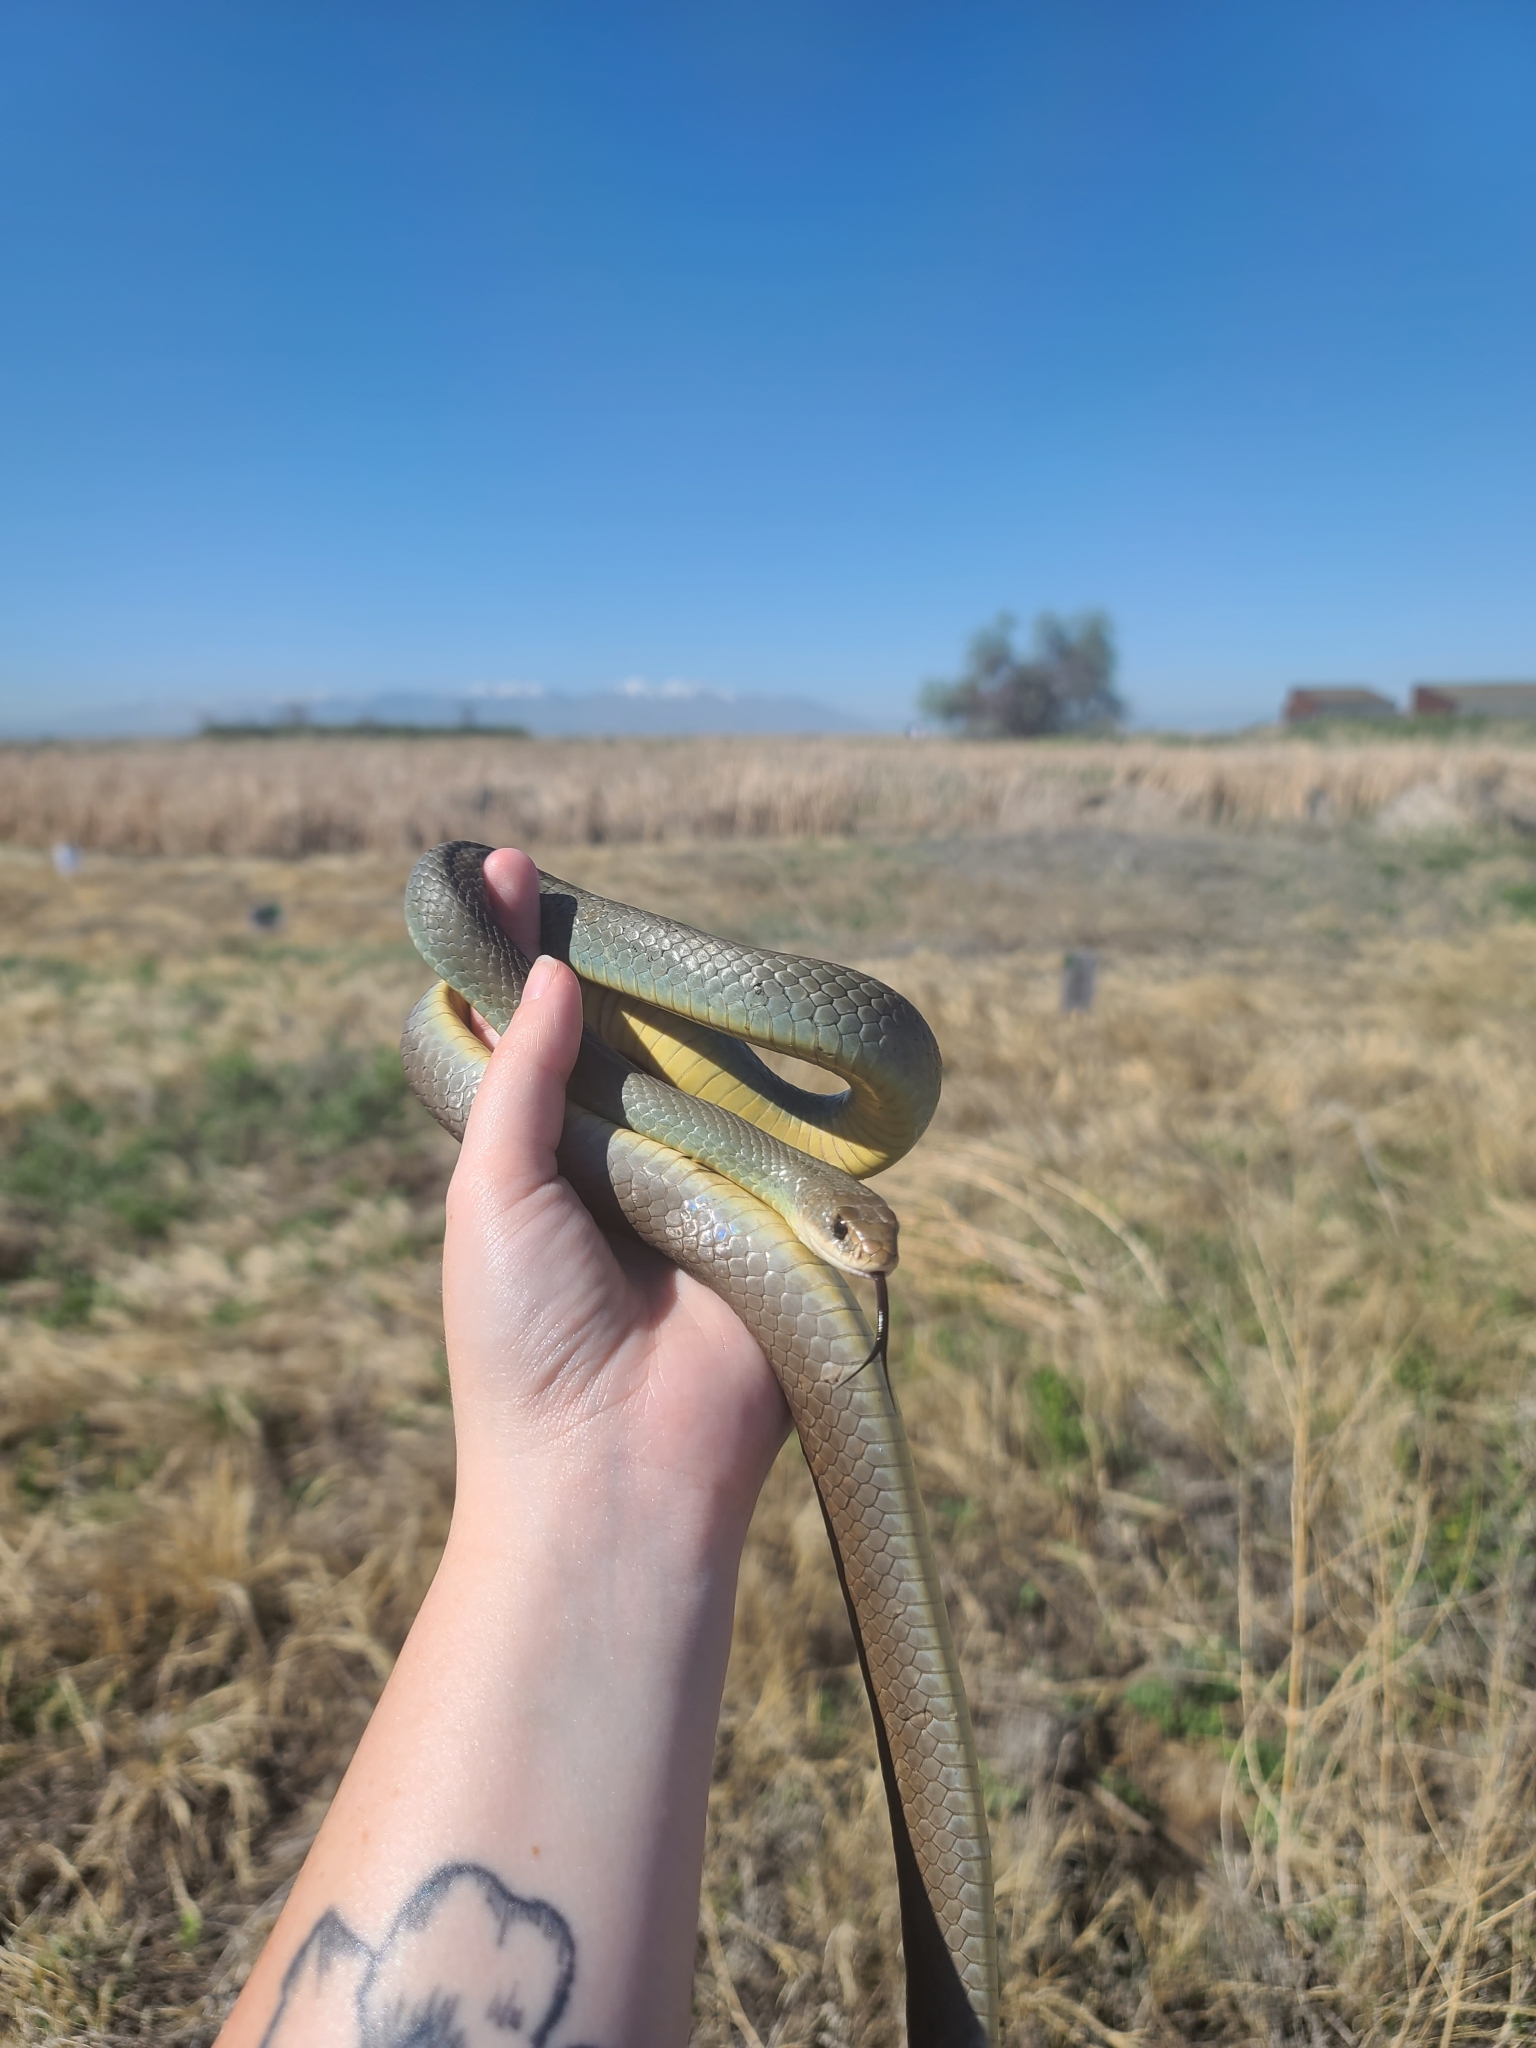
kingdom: Animalia
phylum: Chordata
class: Squamata
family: Colubridae
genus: Coluber
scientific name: Coluber constrictor
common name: Eastern racer
